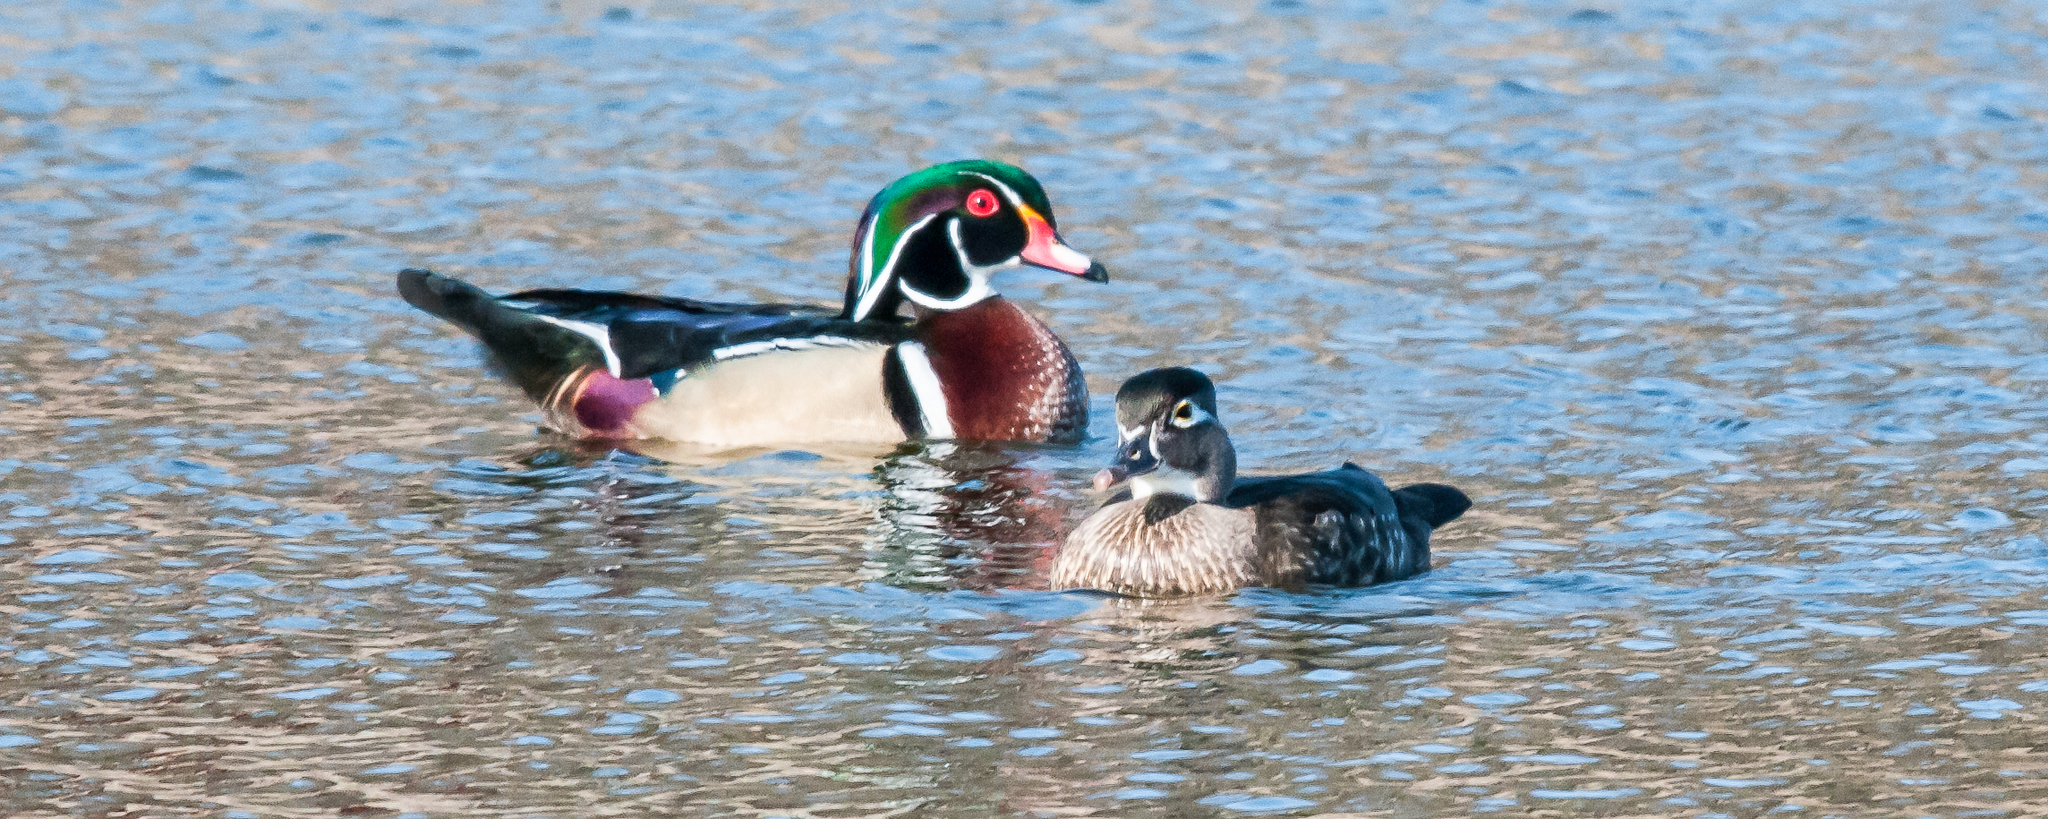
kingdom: Animalia
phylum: Chordata
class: Aves
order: Anseriformes
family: Anatidae
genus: Aix
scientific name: Aix sponsa
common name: Wood duck
